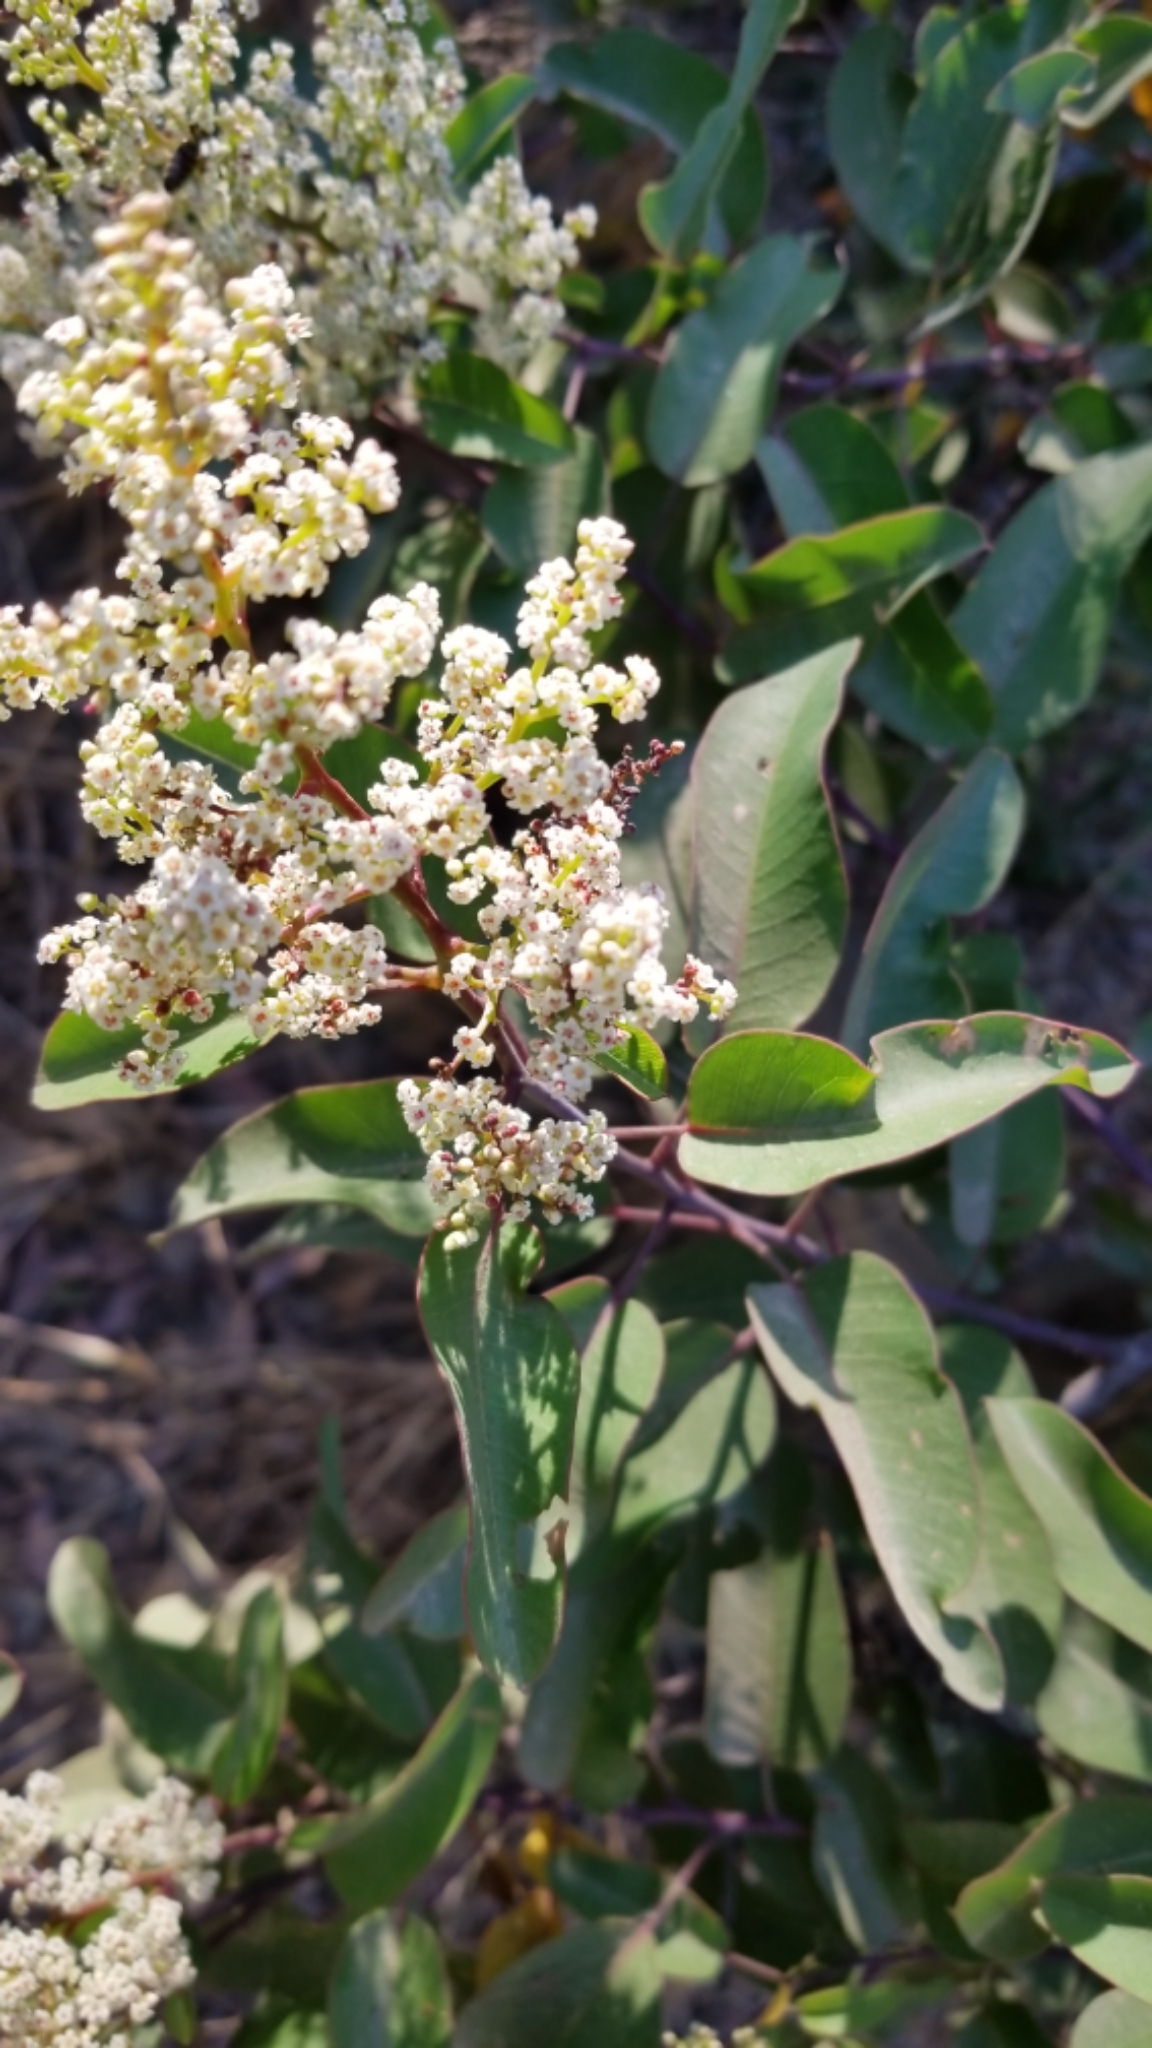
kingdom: Plantae
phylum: Tracheophyta
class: Magnoliopsida
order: Sapindales
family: Anacardiaceae
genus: Malosma
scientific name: Malosma laurina
